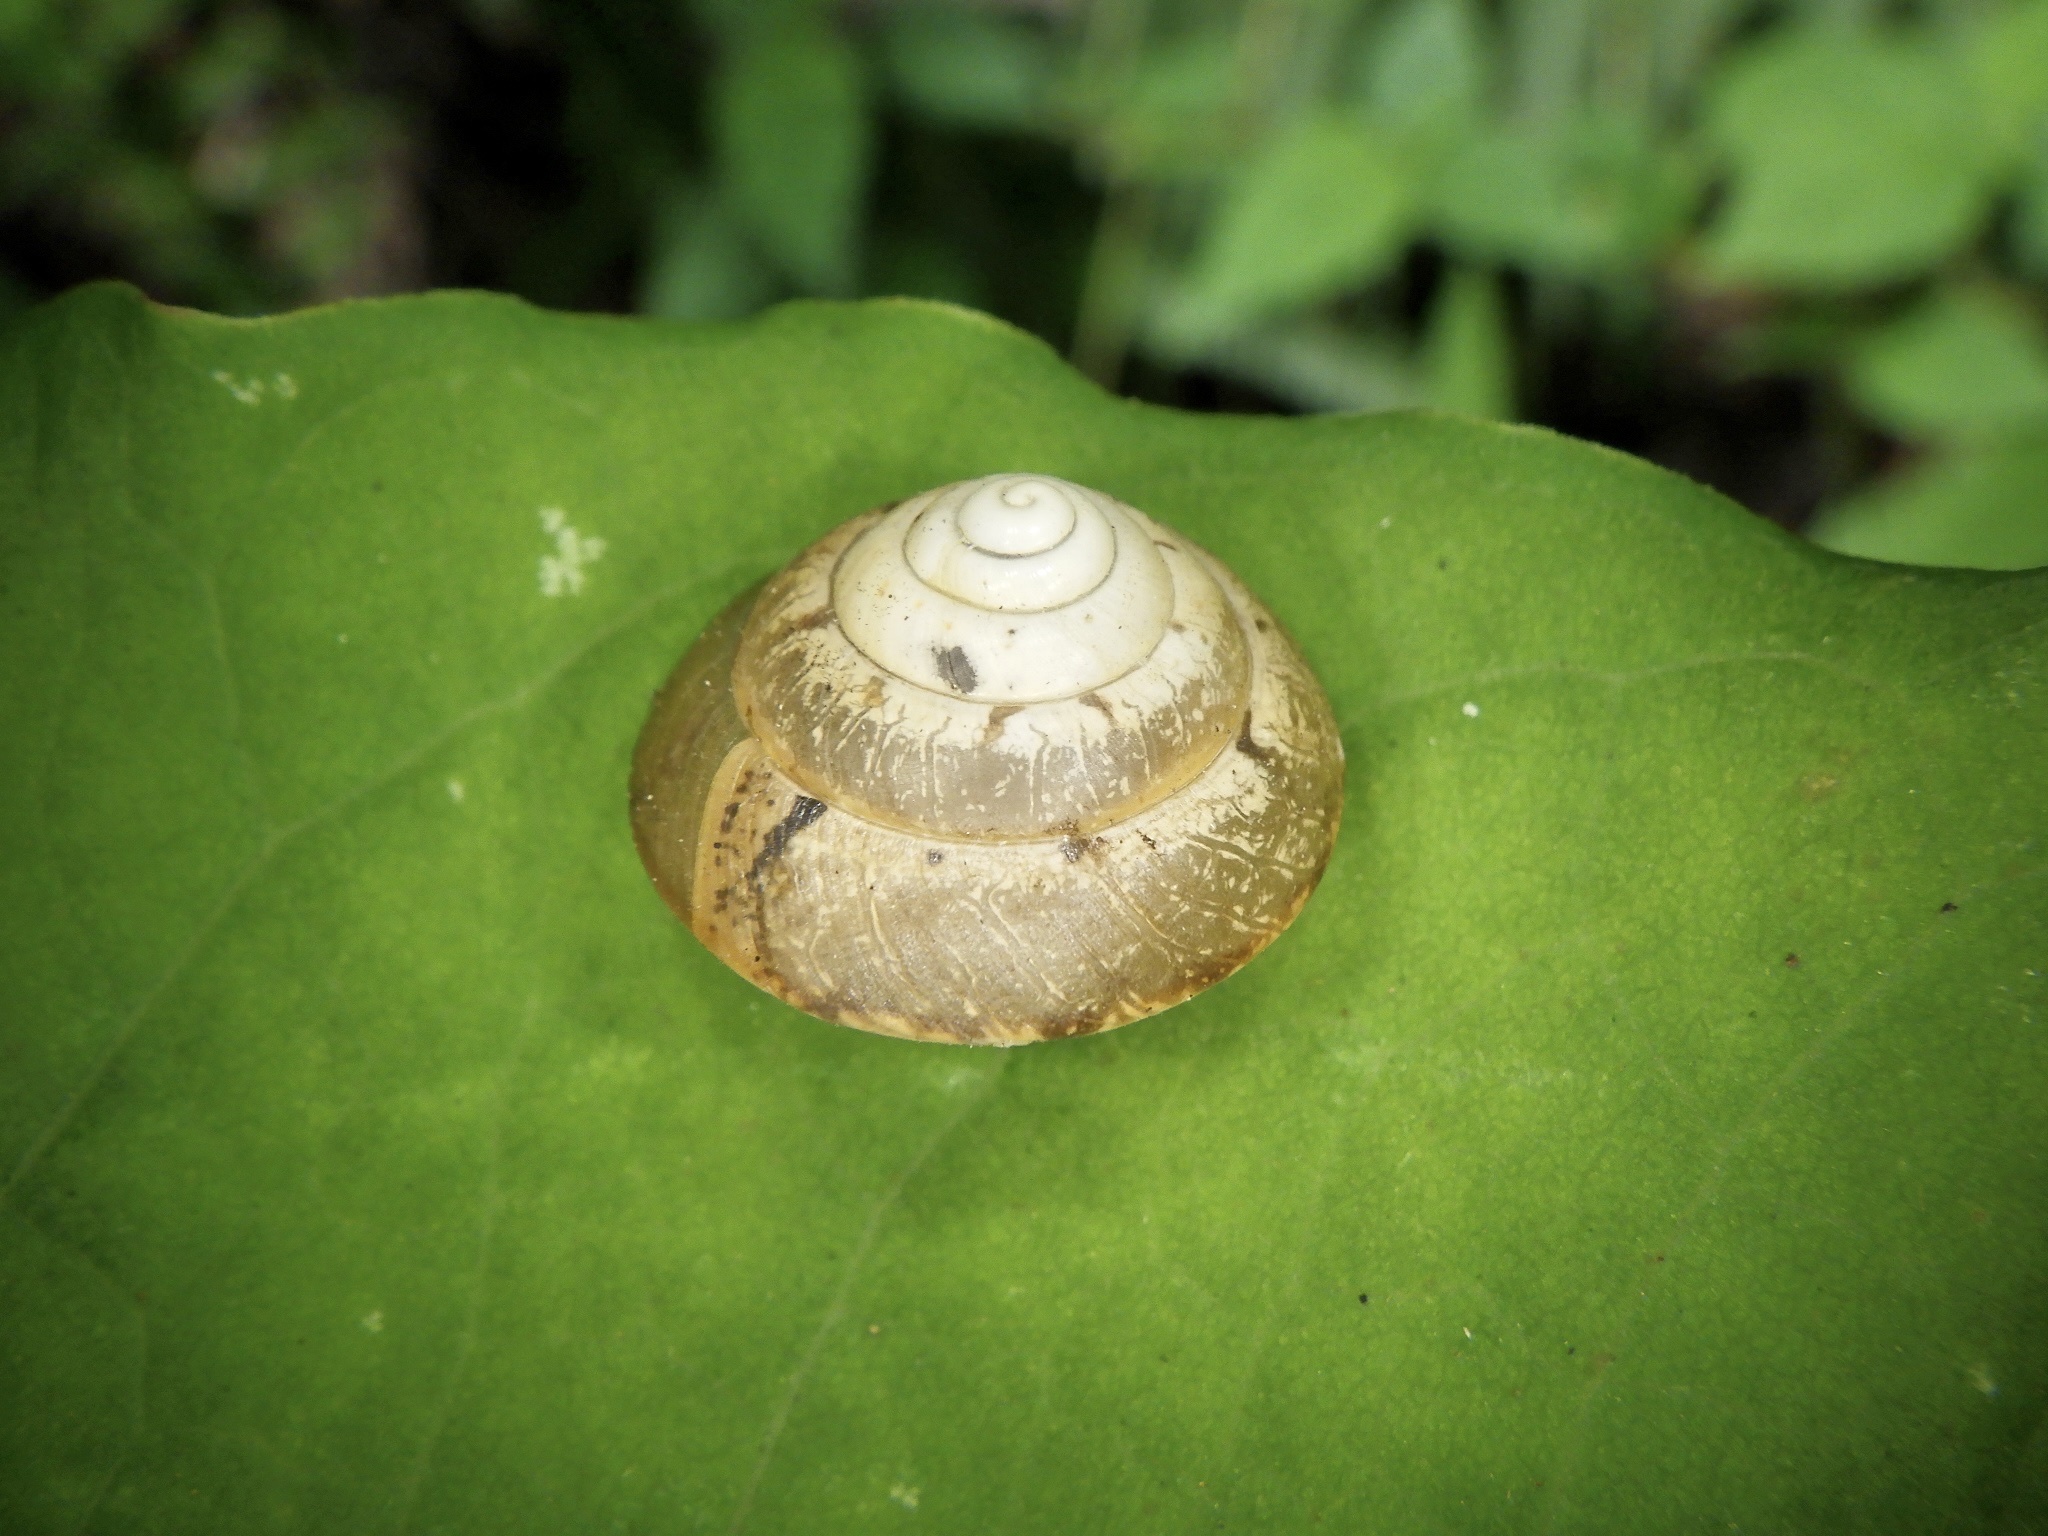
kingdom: Animalia
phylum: Mollusca
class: Gastropoda
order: Stylommatophora
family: Camaenidae
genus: Satsuma
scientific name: Satsuma japonica
